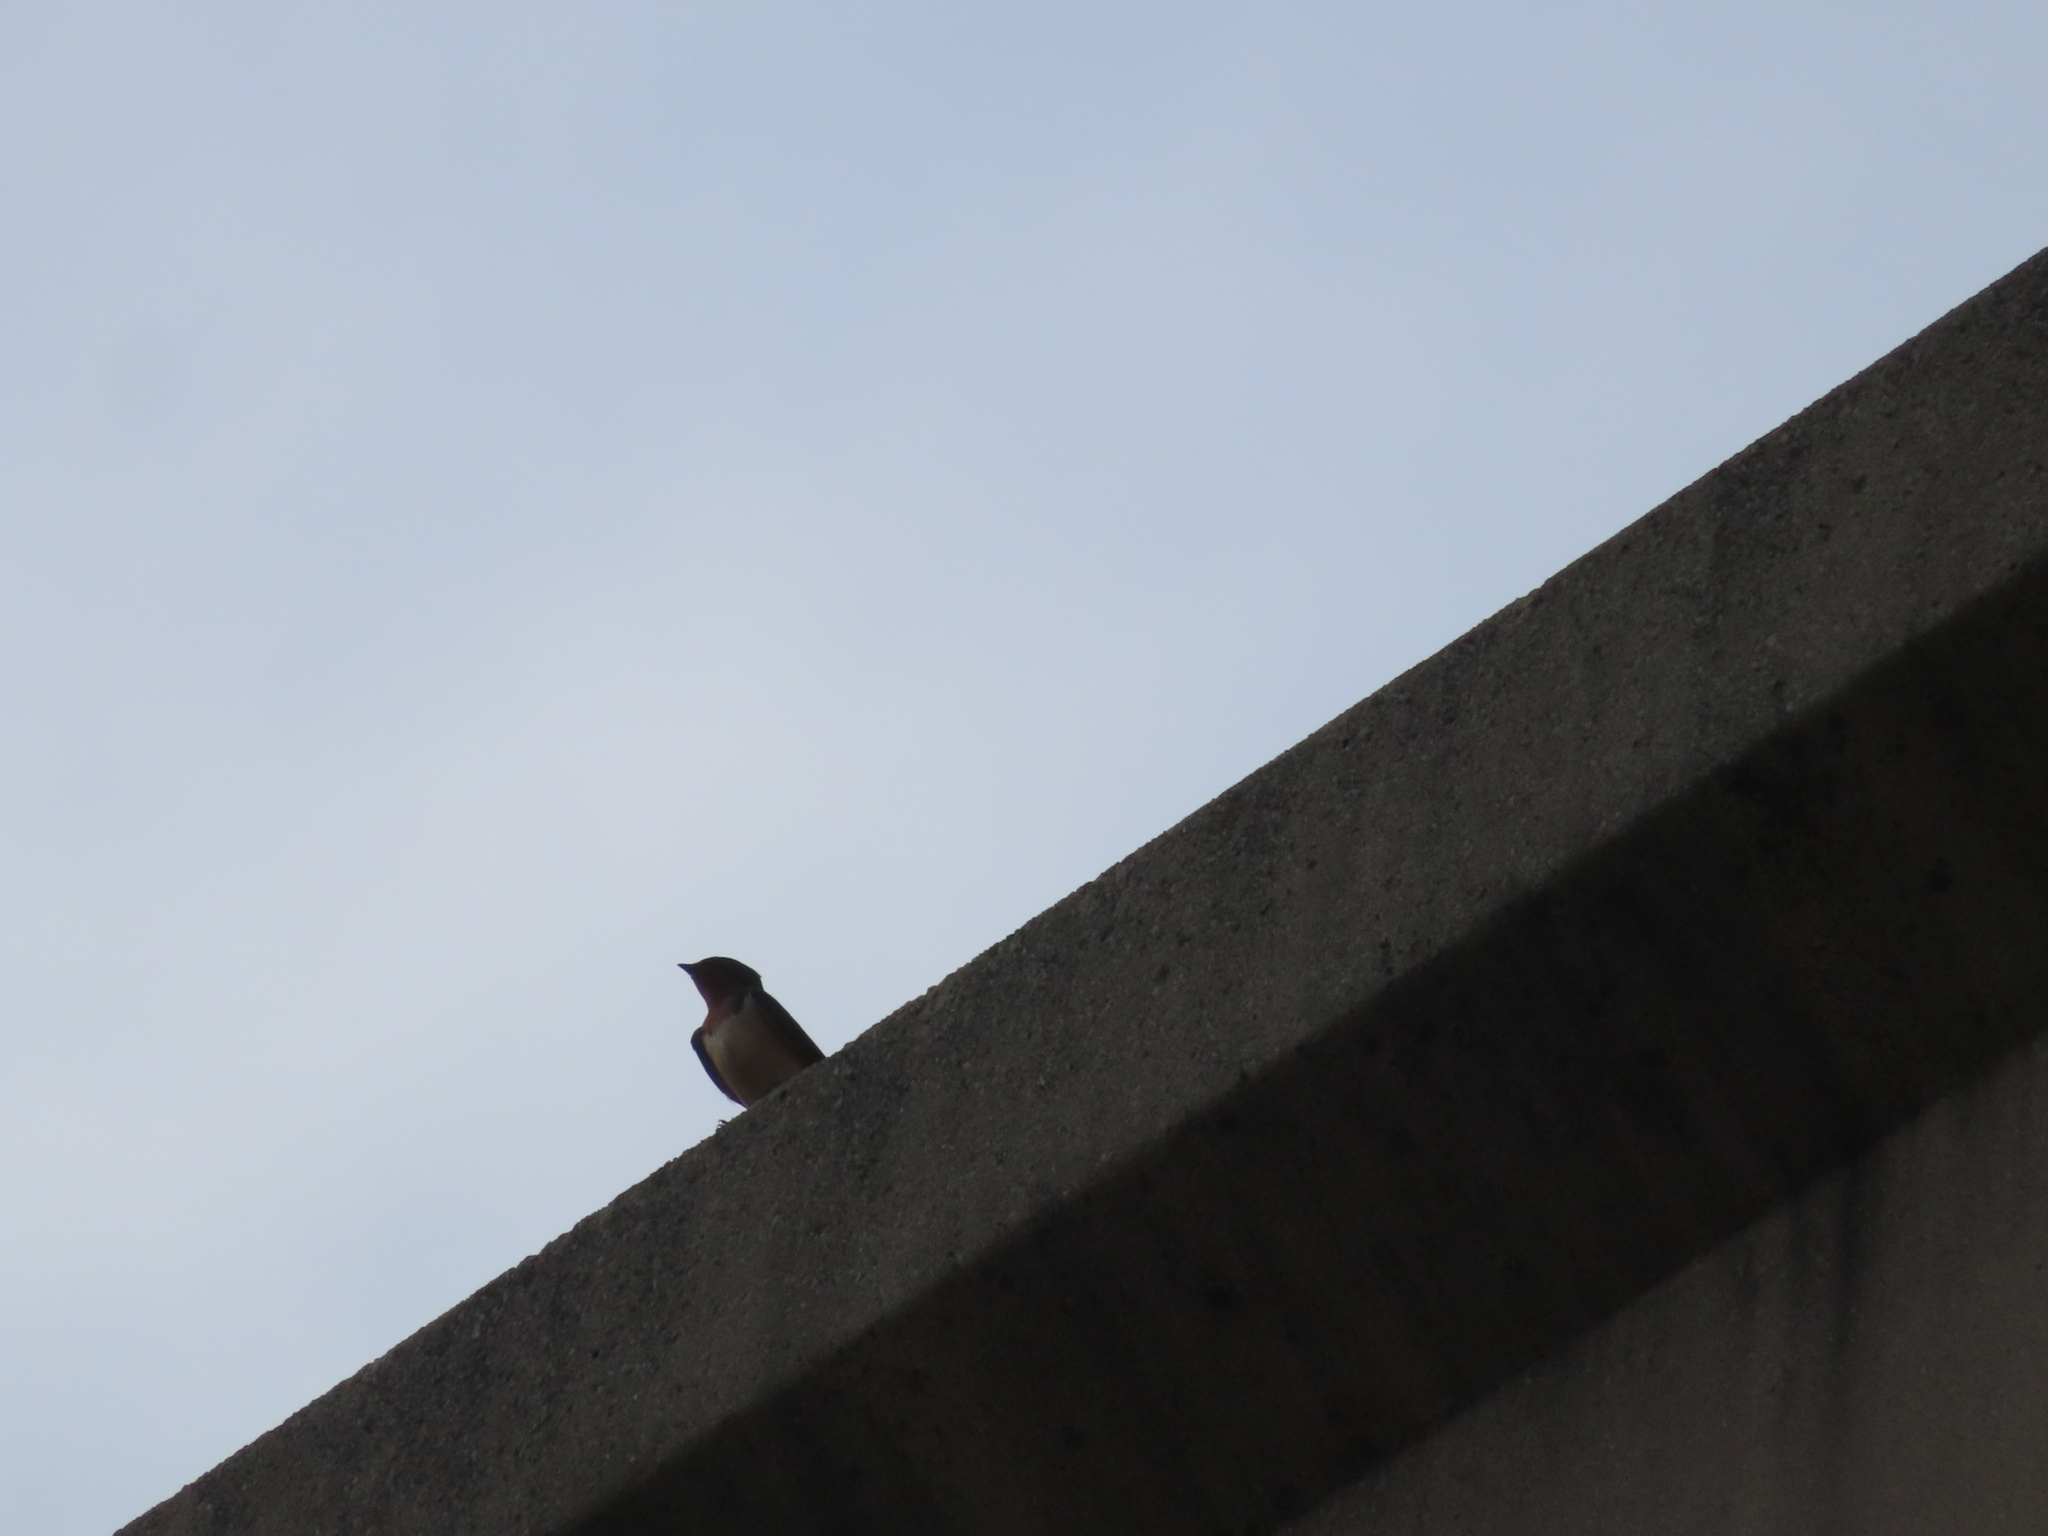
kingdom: Animalia
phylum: Chordata
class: Aves
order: Passeriformes
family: Hirundinidae
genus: Hirundo
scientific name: Hirundo rustica
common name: Barn swallow
